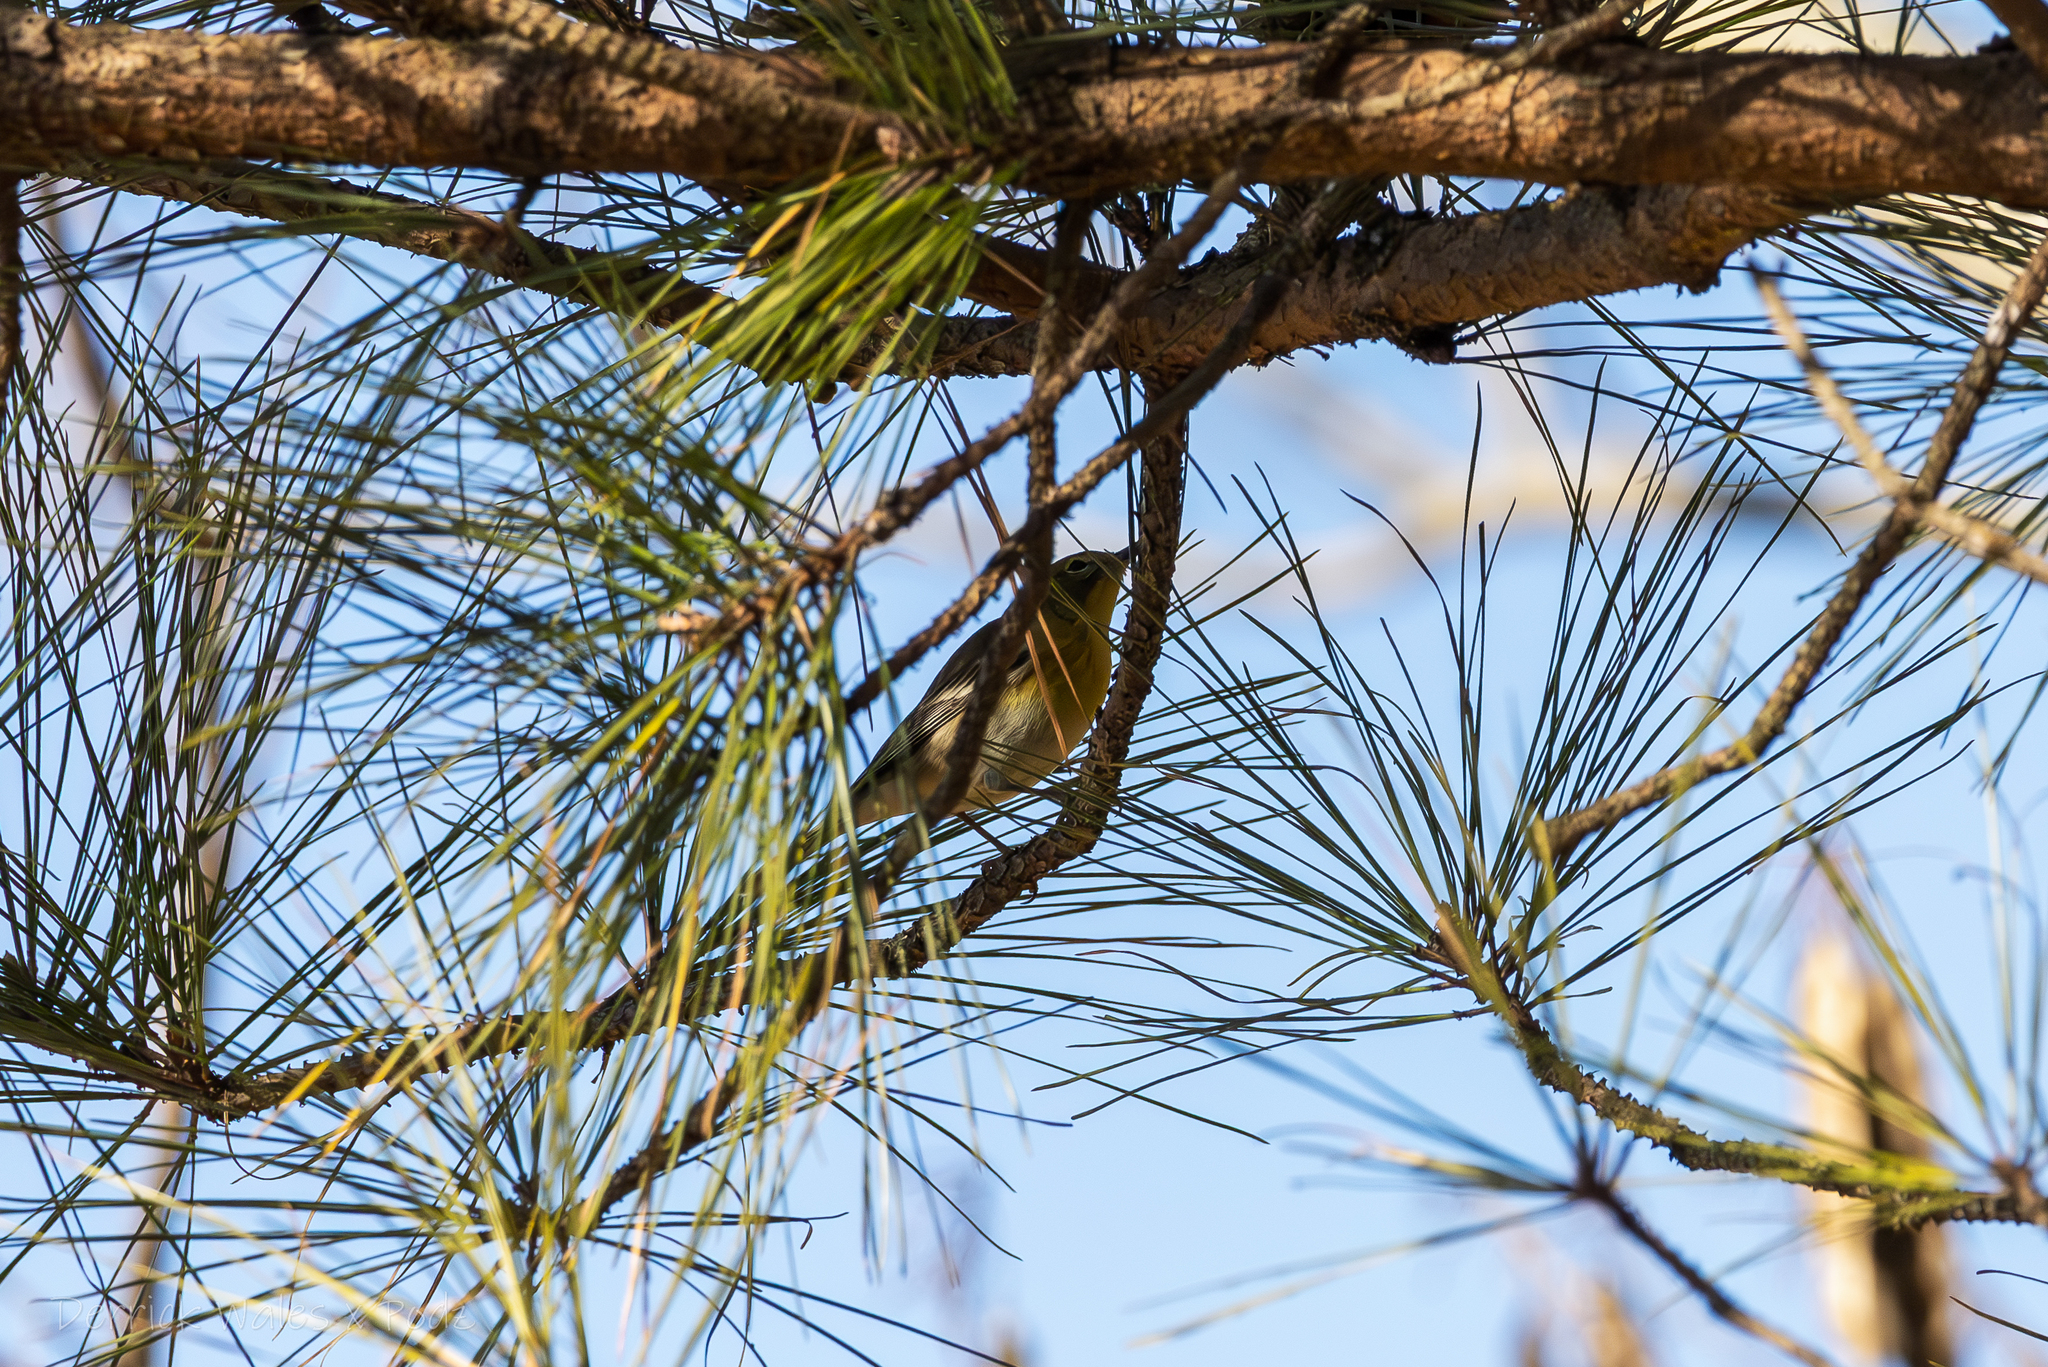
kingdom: Animalia
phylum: Chordata
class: Aves
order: Passeriformes
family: Parulidae
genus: Setophaga
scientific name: Setophaga pinus
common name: Pine warbler
